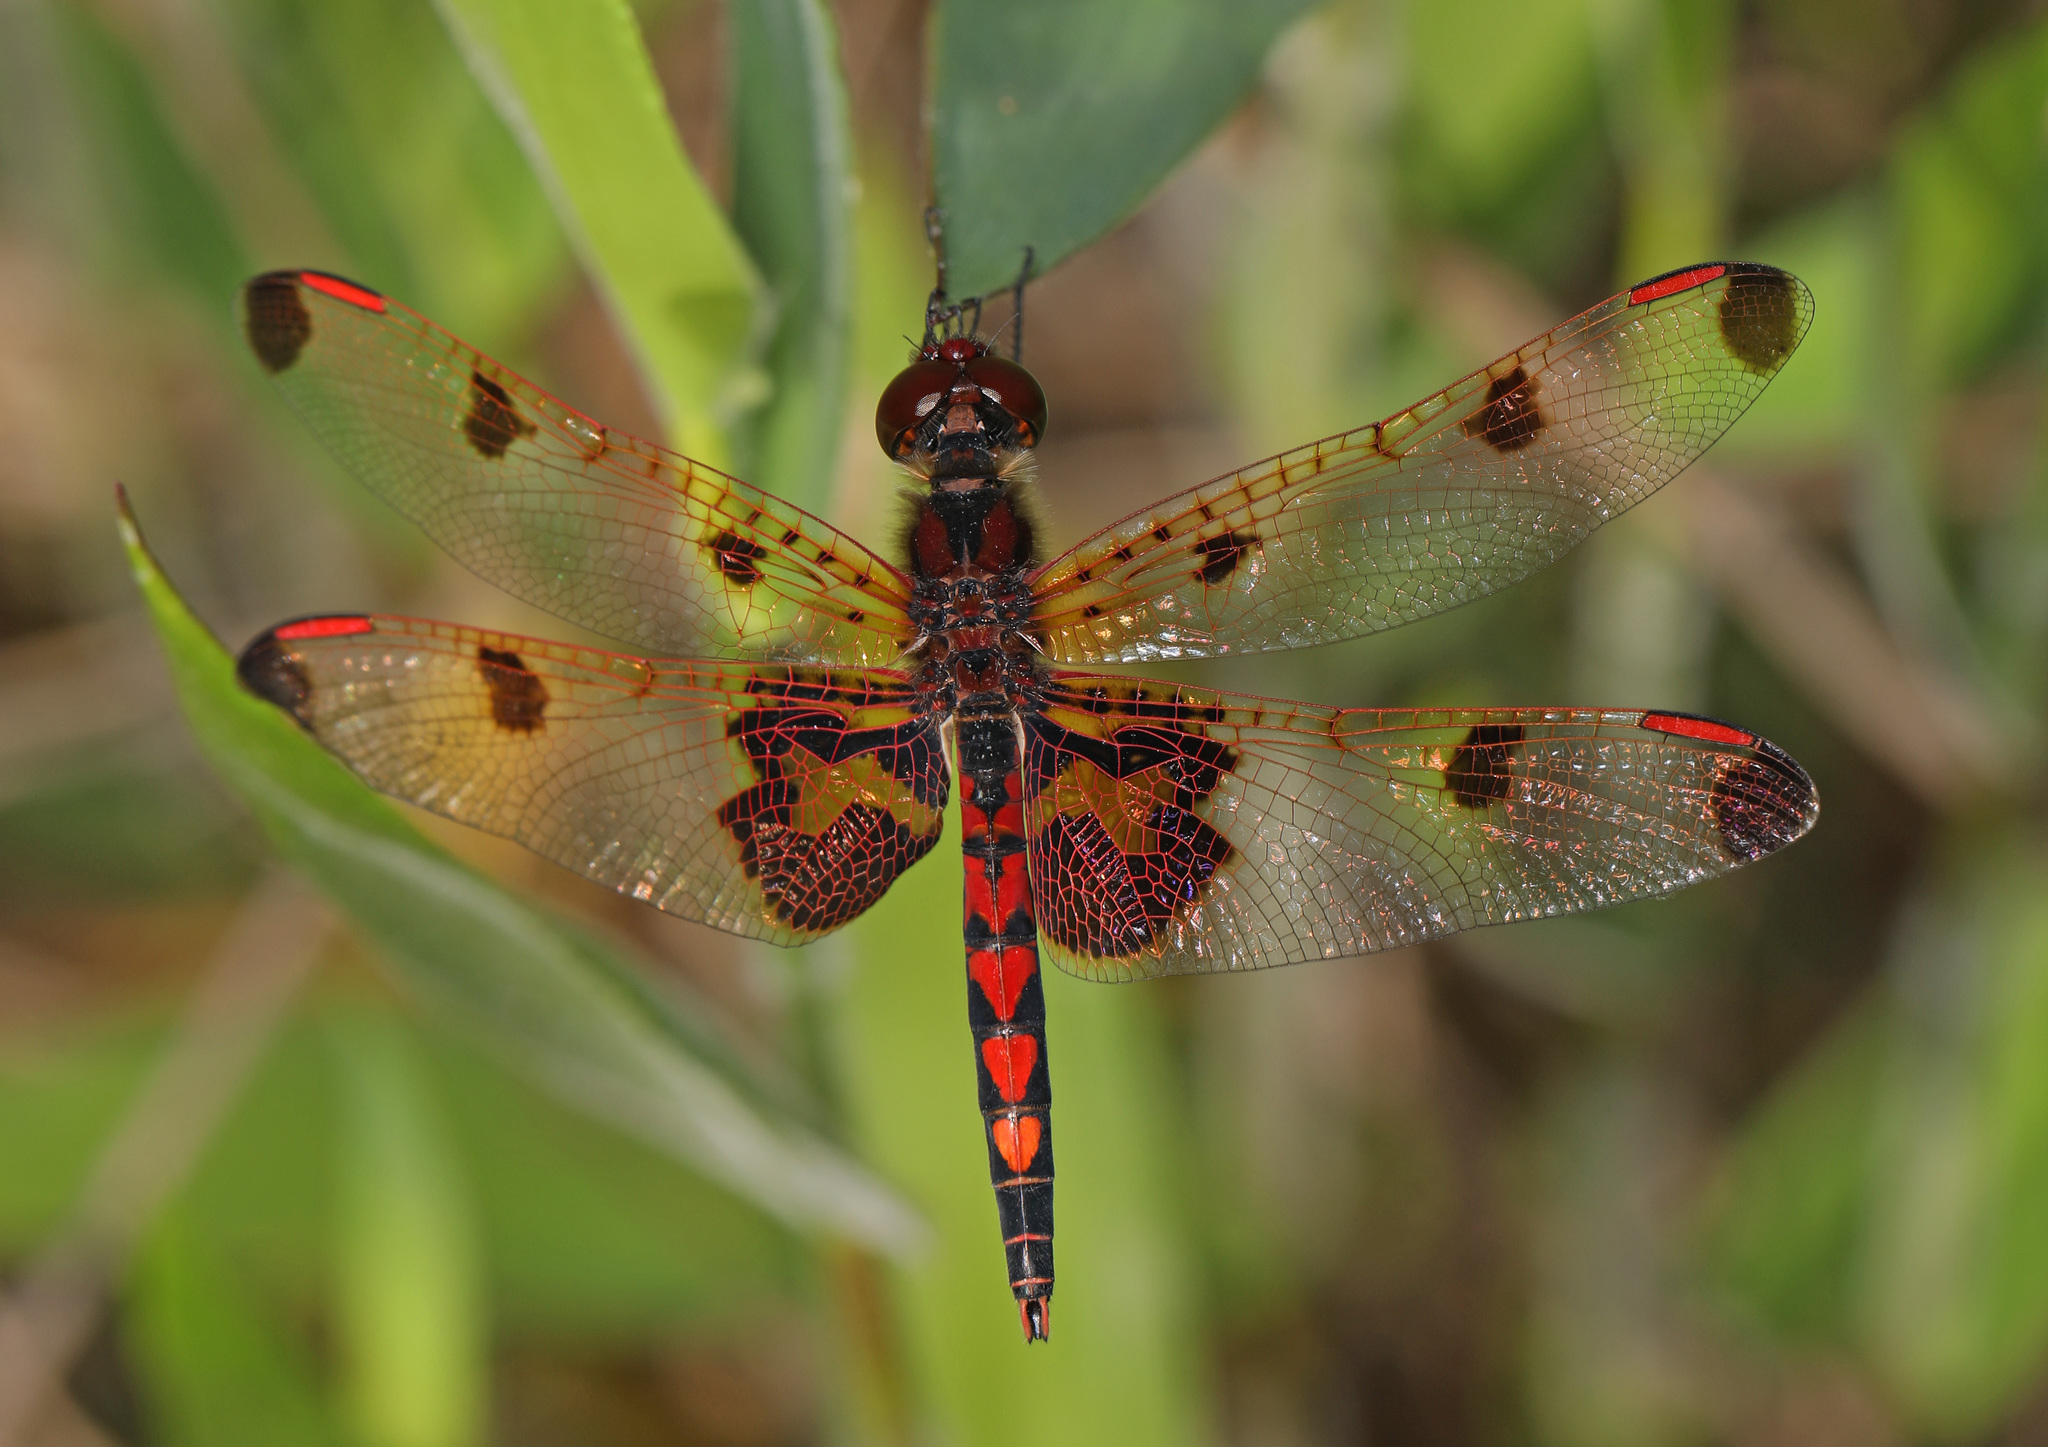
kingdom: Animalia
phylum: Arthropoda
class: Insecta
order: Odonata
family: Libellulidae
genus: Celithemis
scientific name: Celithemis elisa
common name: Calico pennant
